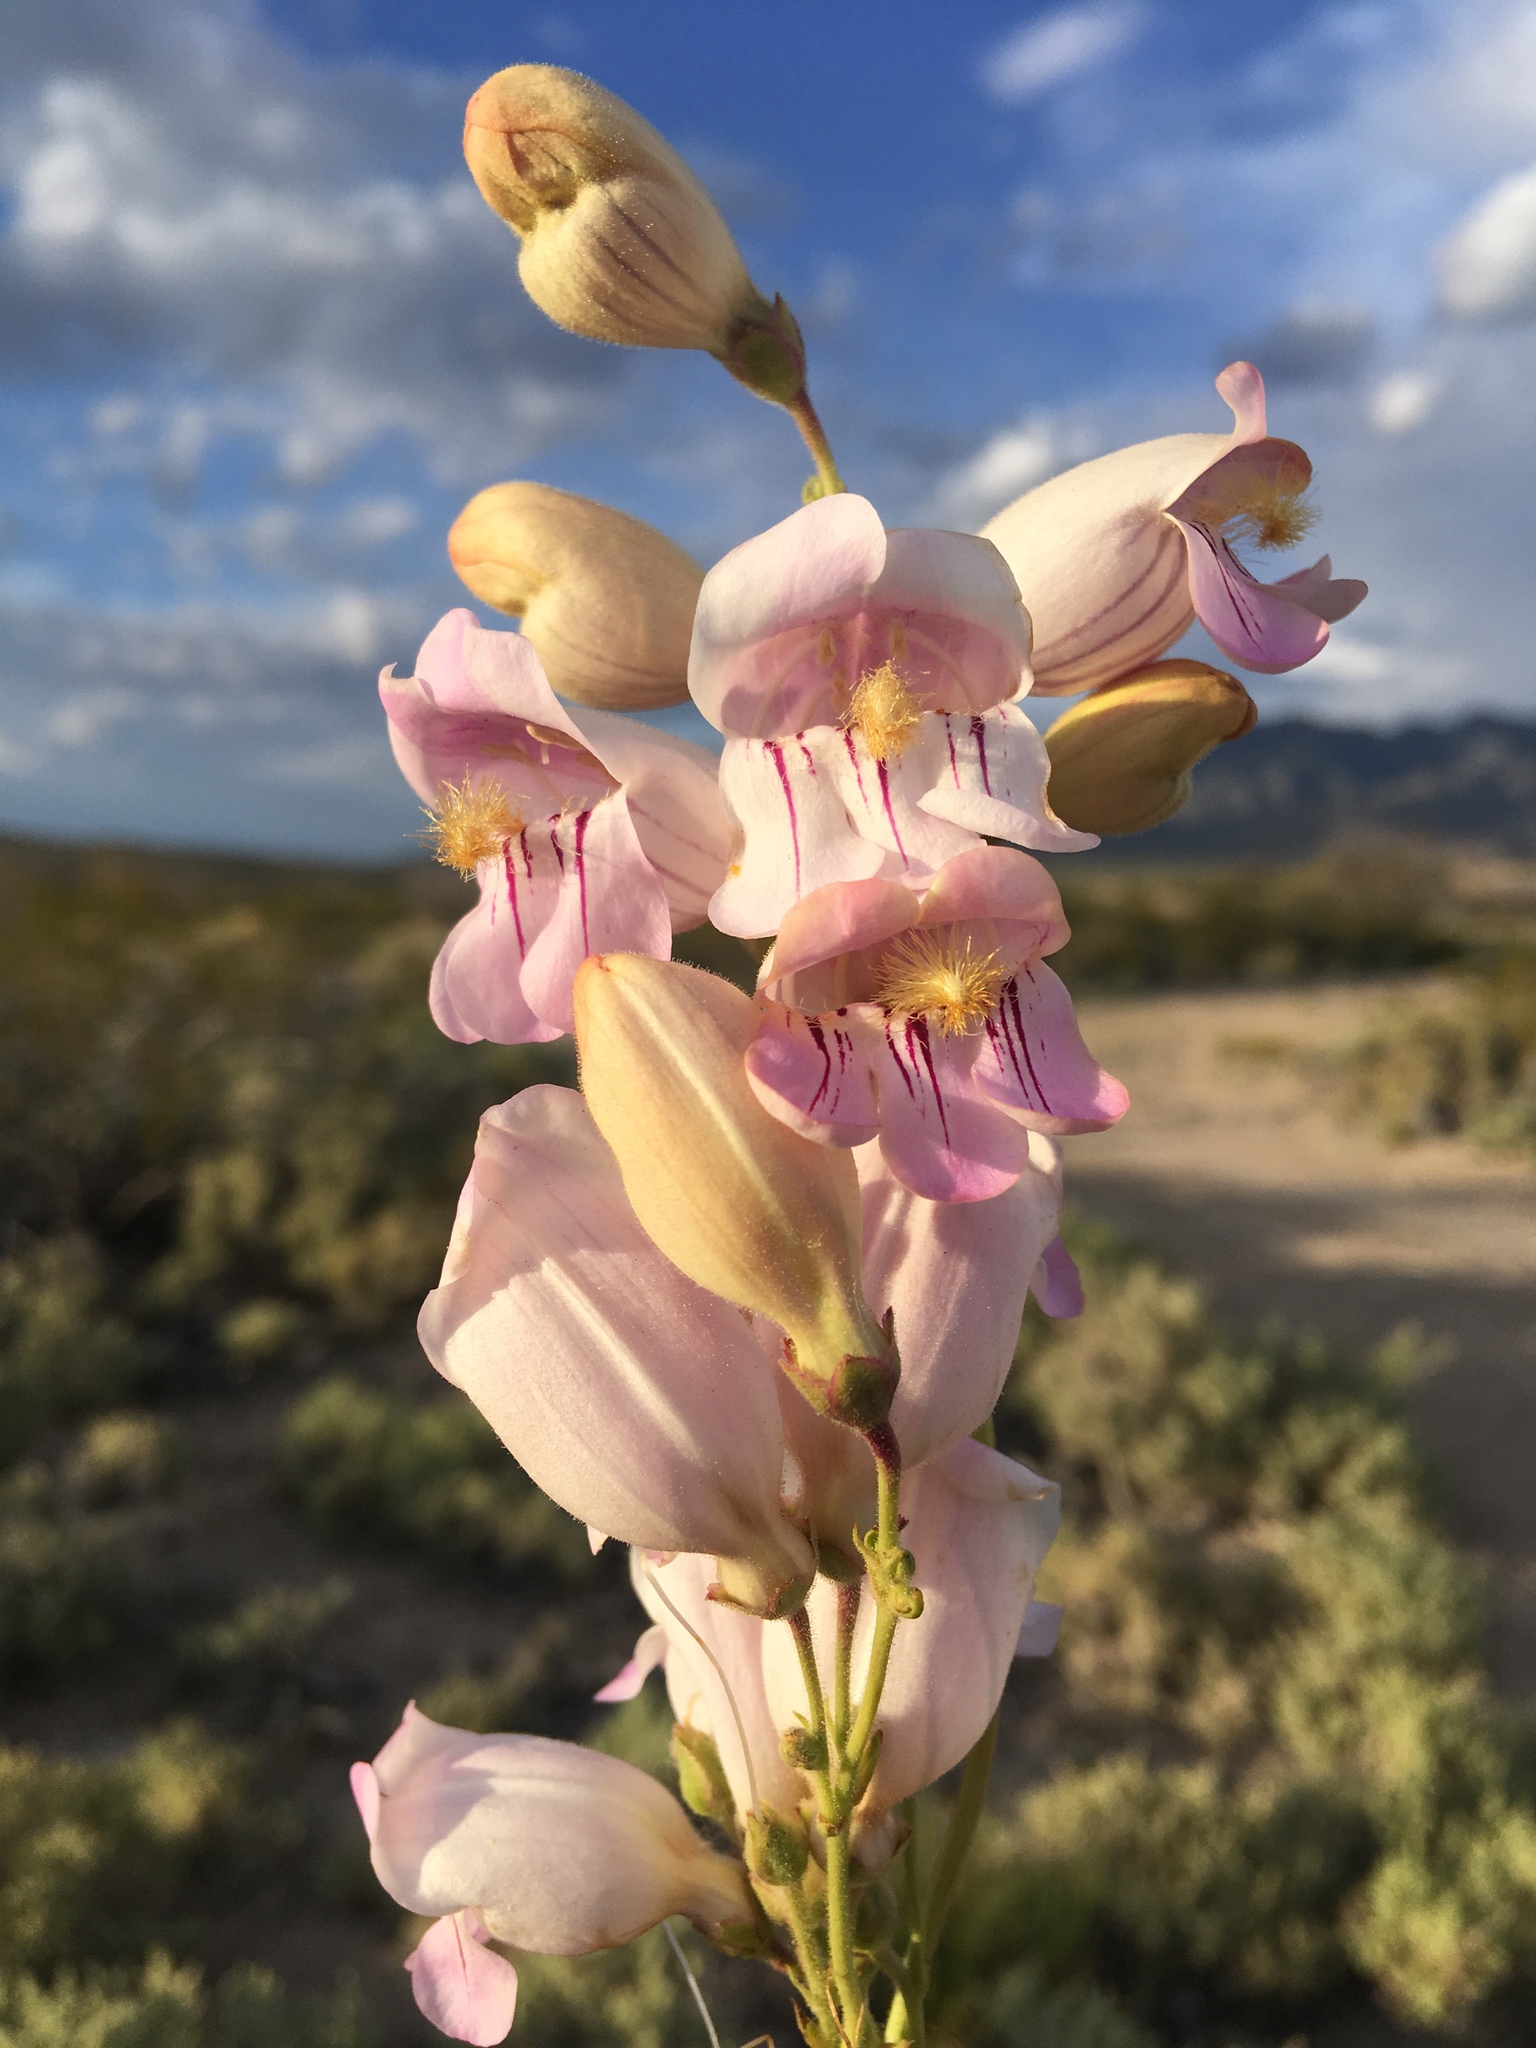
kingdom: Plantae
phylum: Tracheophyta
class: Magnoliopsida
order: Lamiales
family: Plantaginaceae
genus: Penstemon
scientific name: Penstemon palmeri
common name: Palmer penstemon
